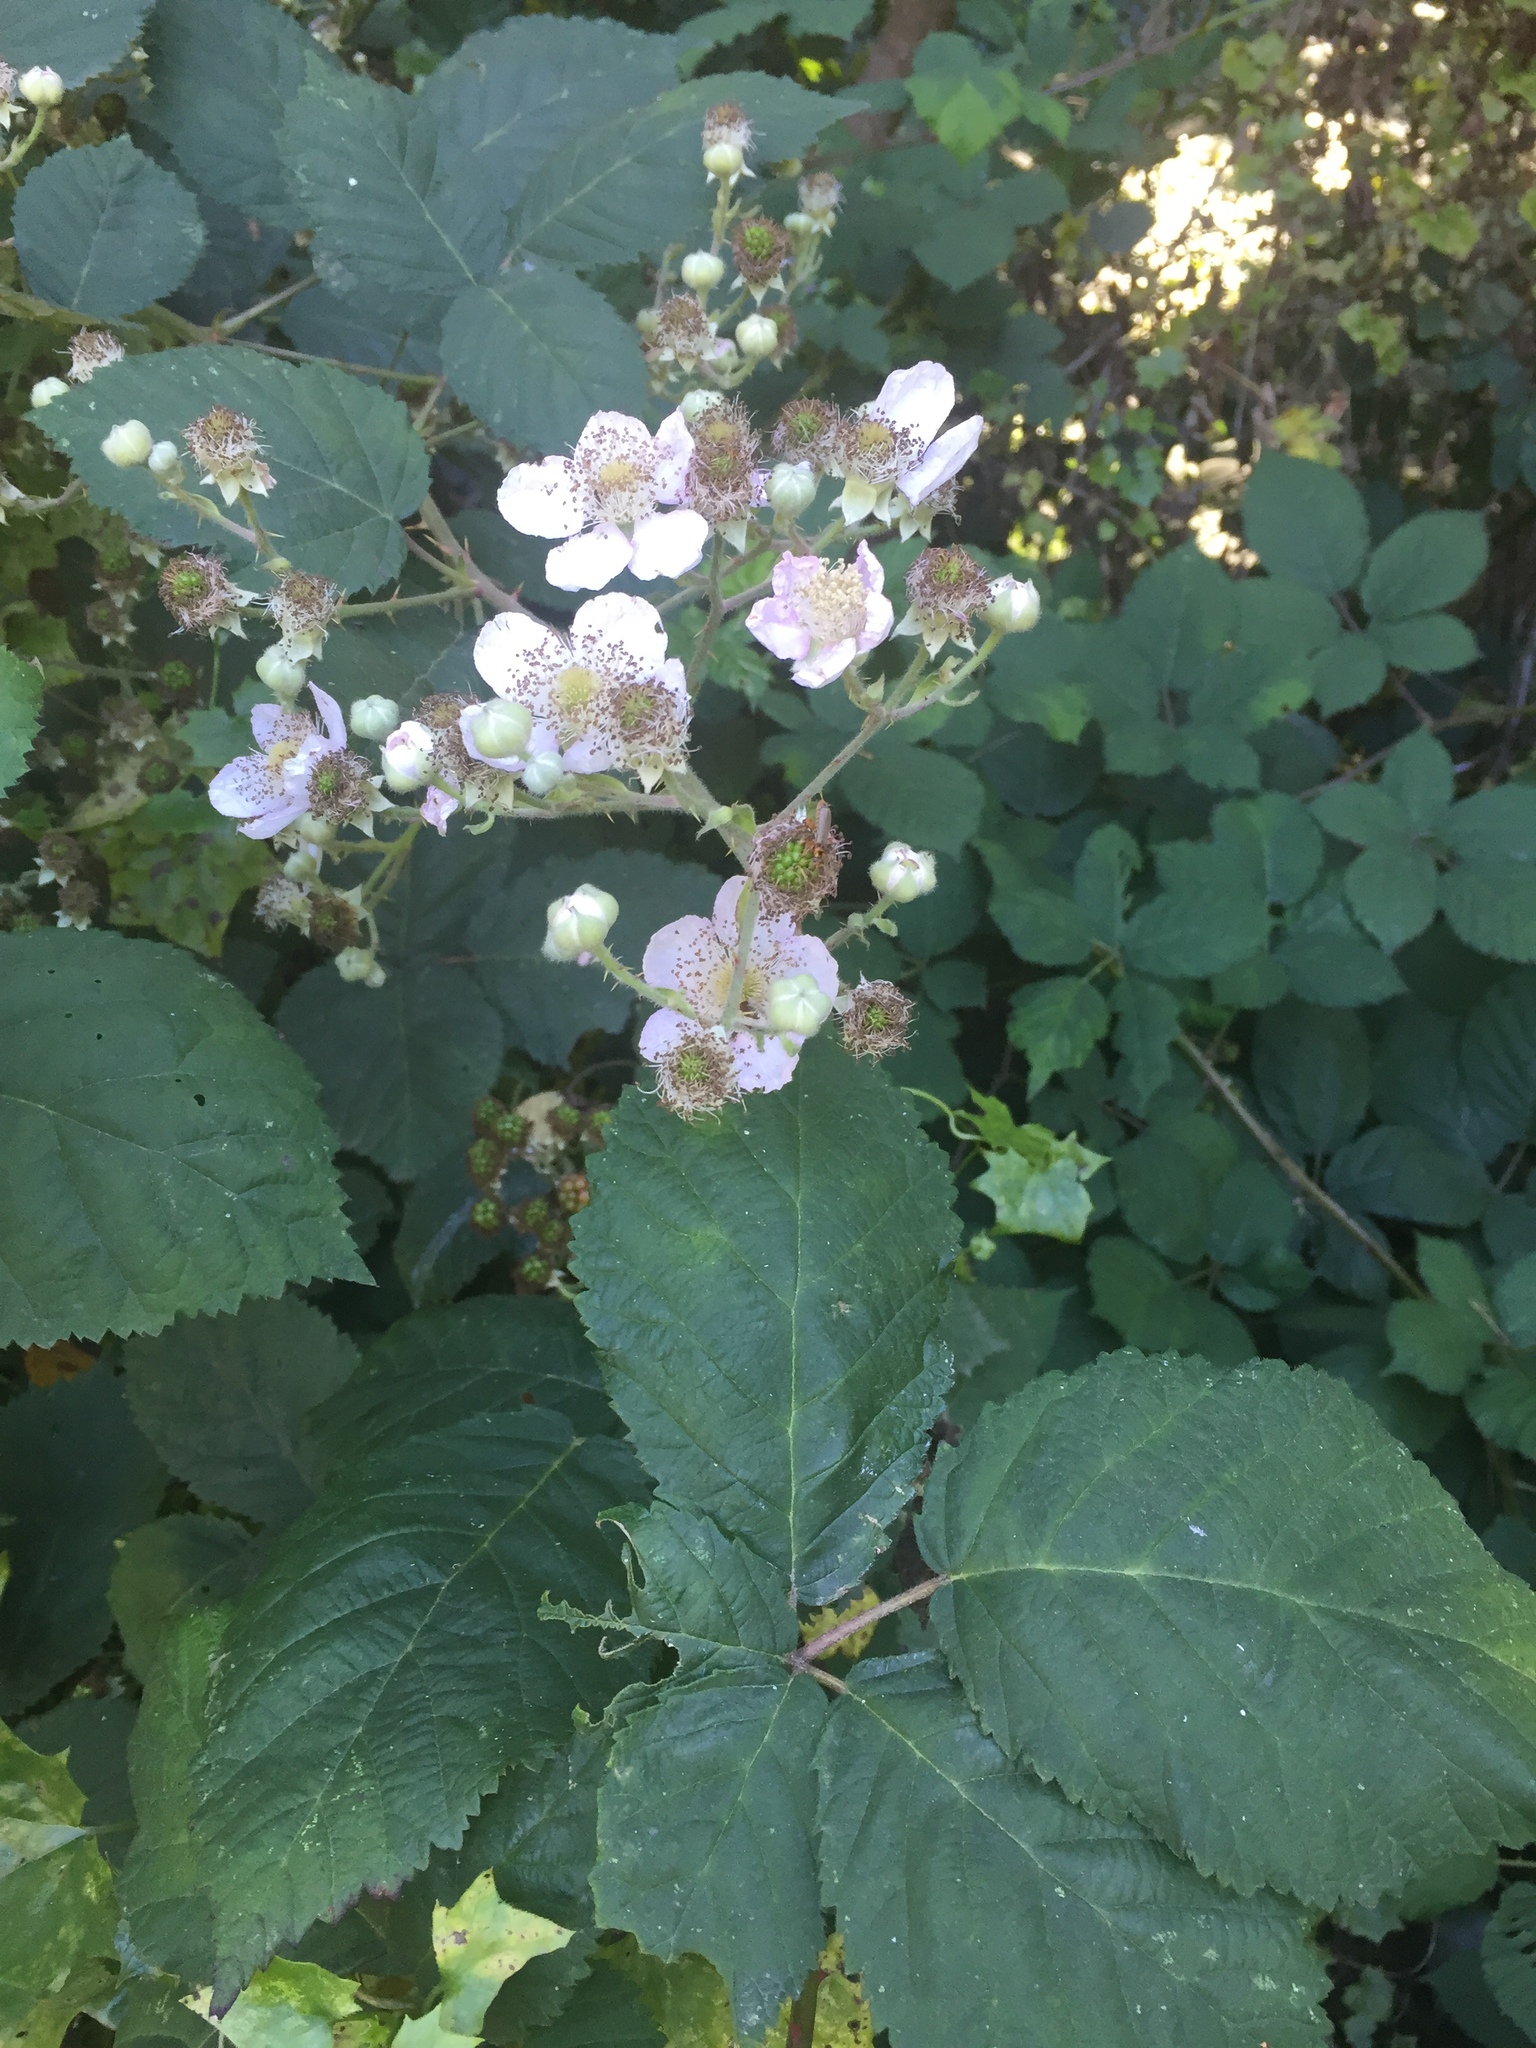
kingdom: Plantae
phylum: Tracheophyta
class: Magnoliopsida
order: Rosales
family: Rosaceae
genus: Rubus
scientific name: Rubus armeniacus
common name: Himalayan blackberry
